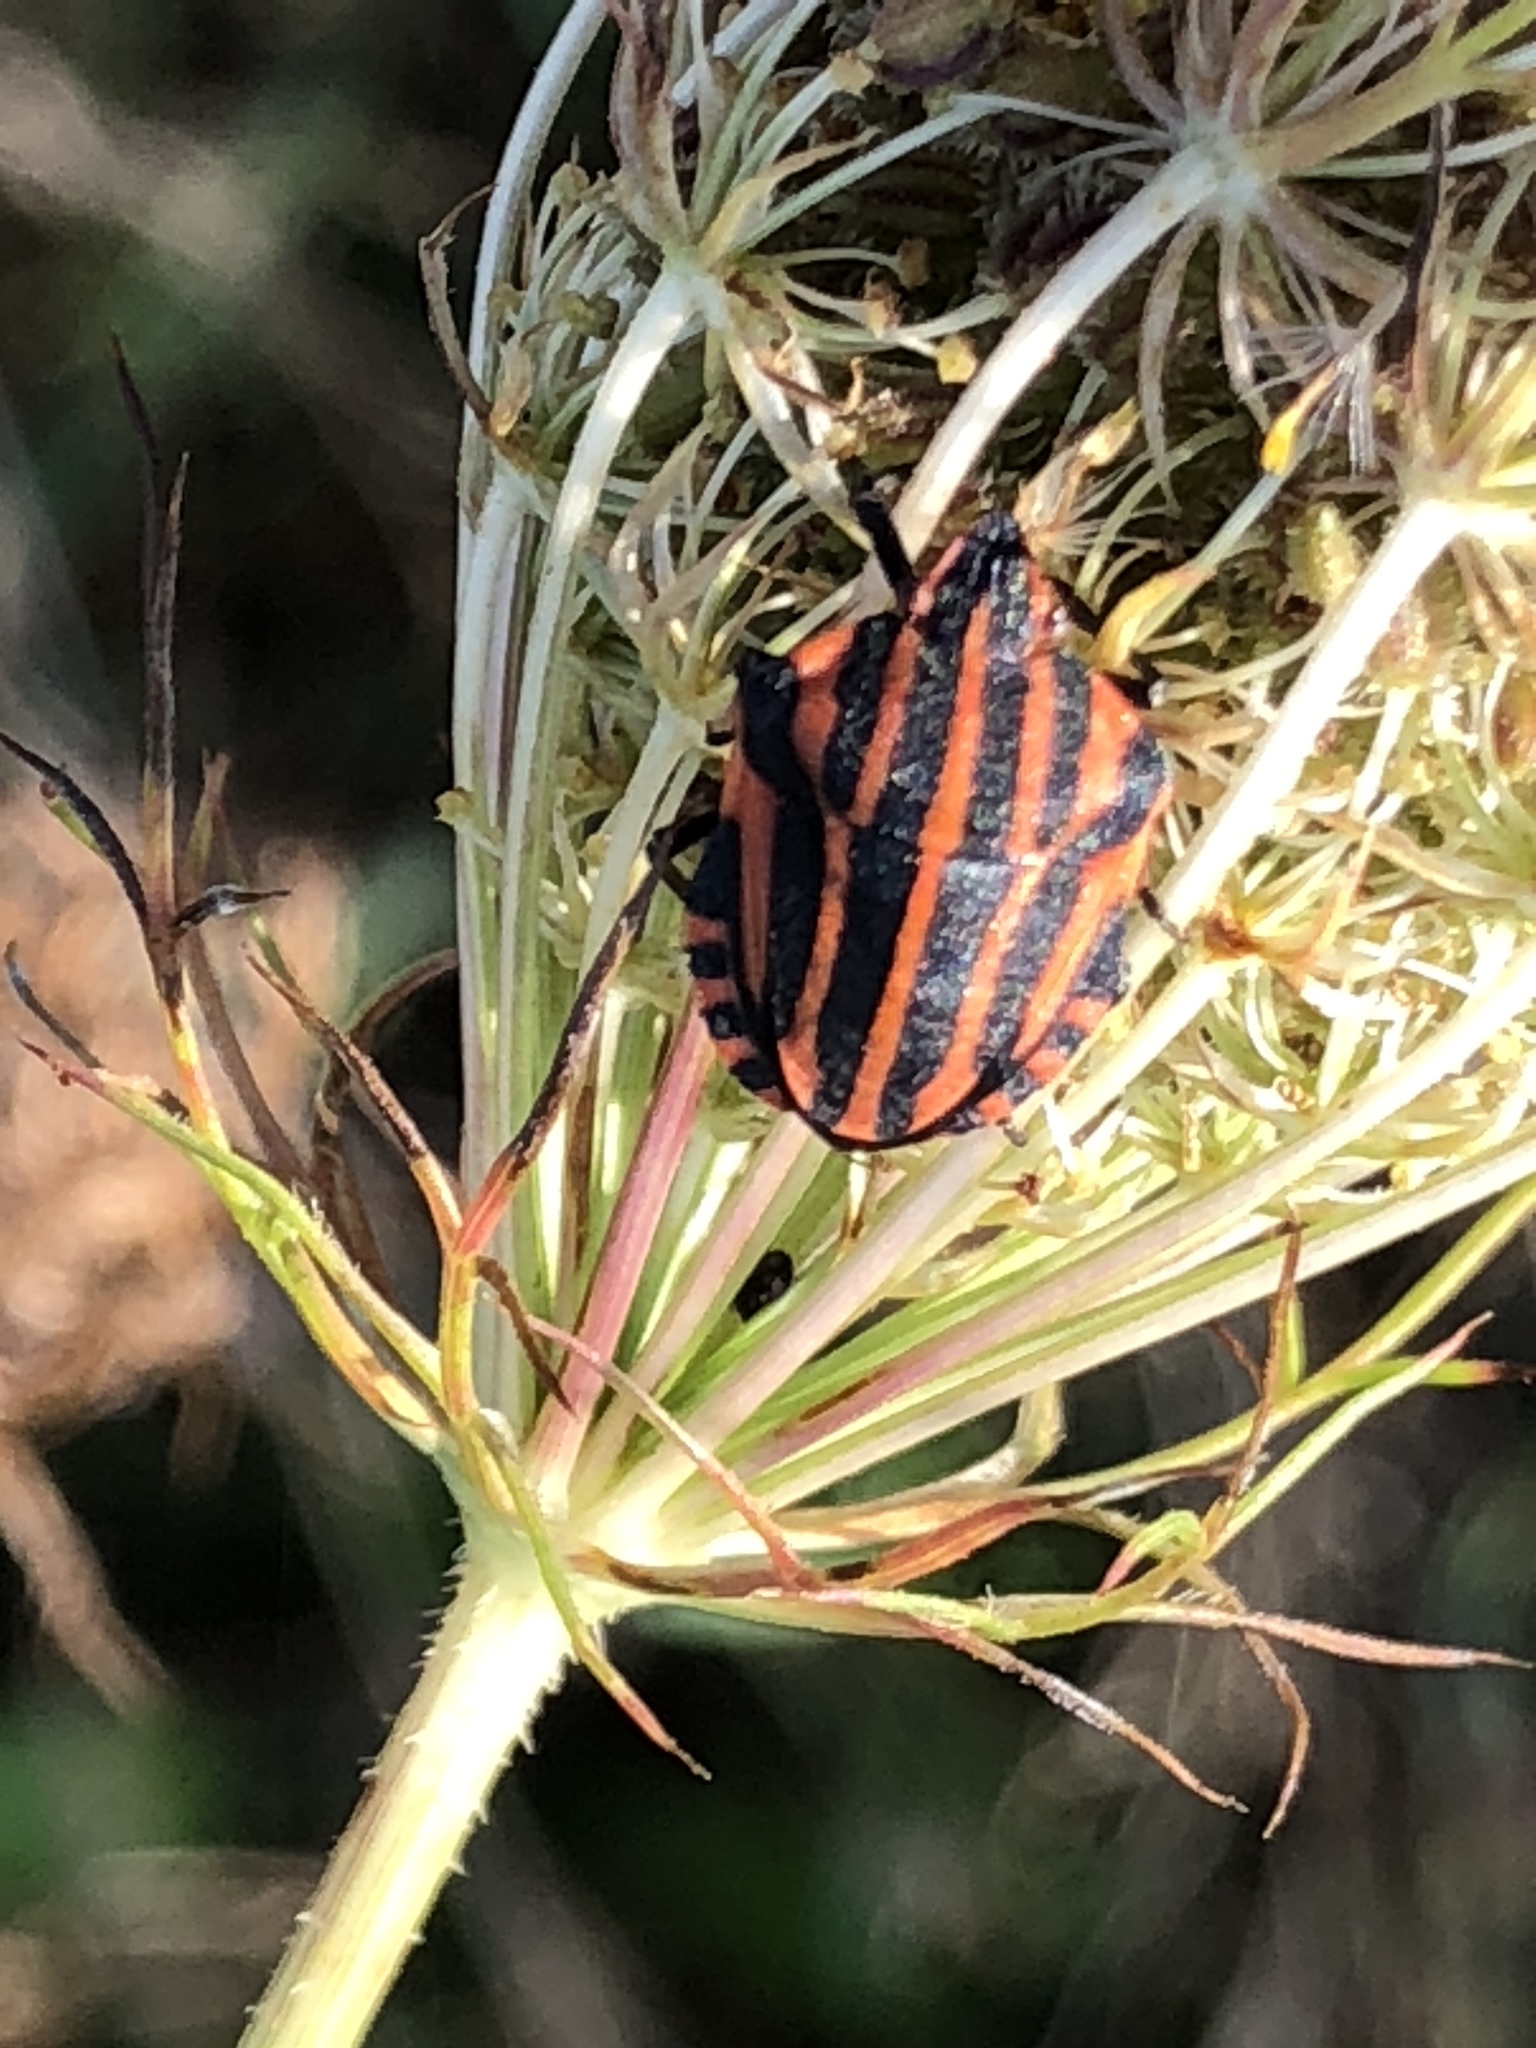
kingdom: Animalia
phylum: Arthropoda
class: Insecta
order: Hemiptera
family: Pentatomidae
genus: Graphosoma
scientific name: Graphosoma italicum
